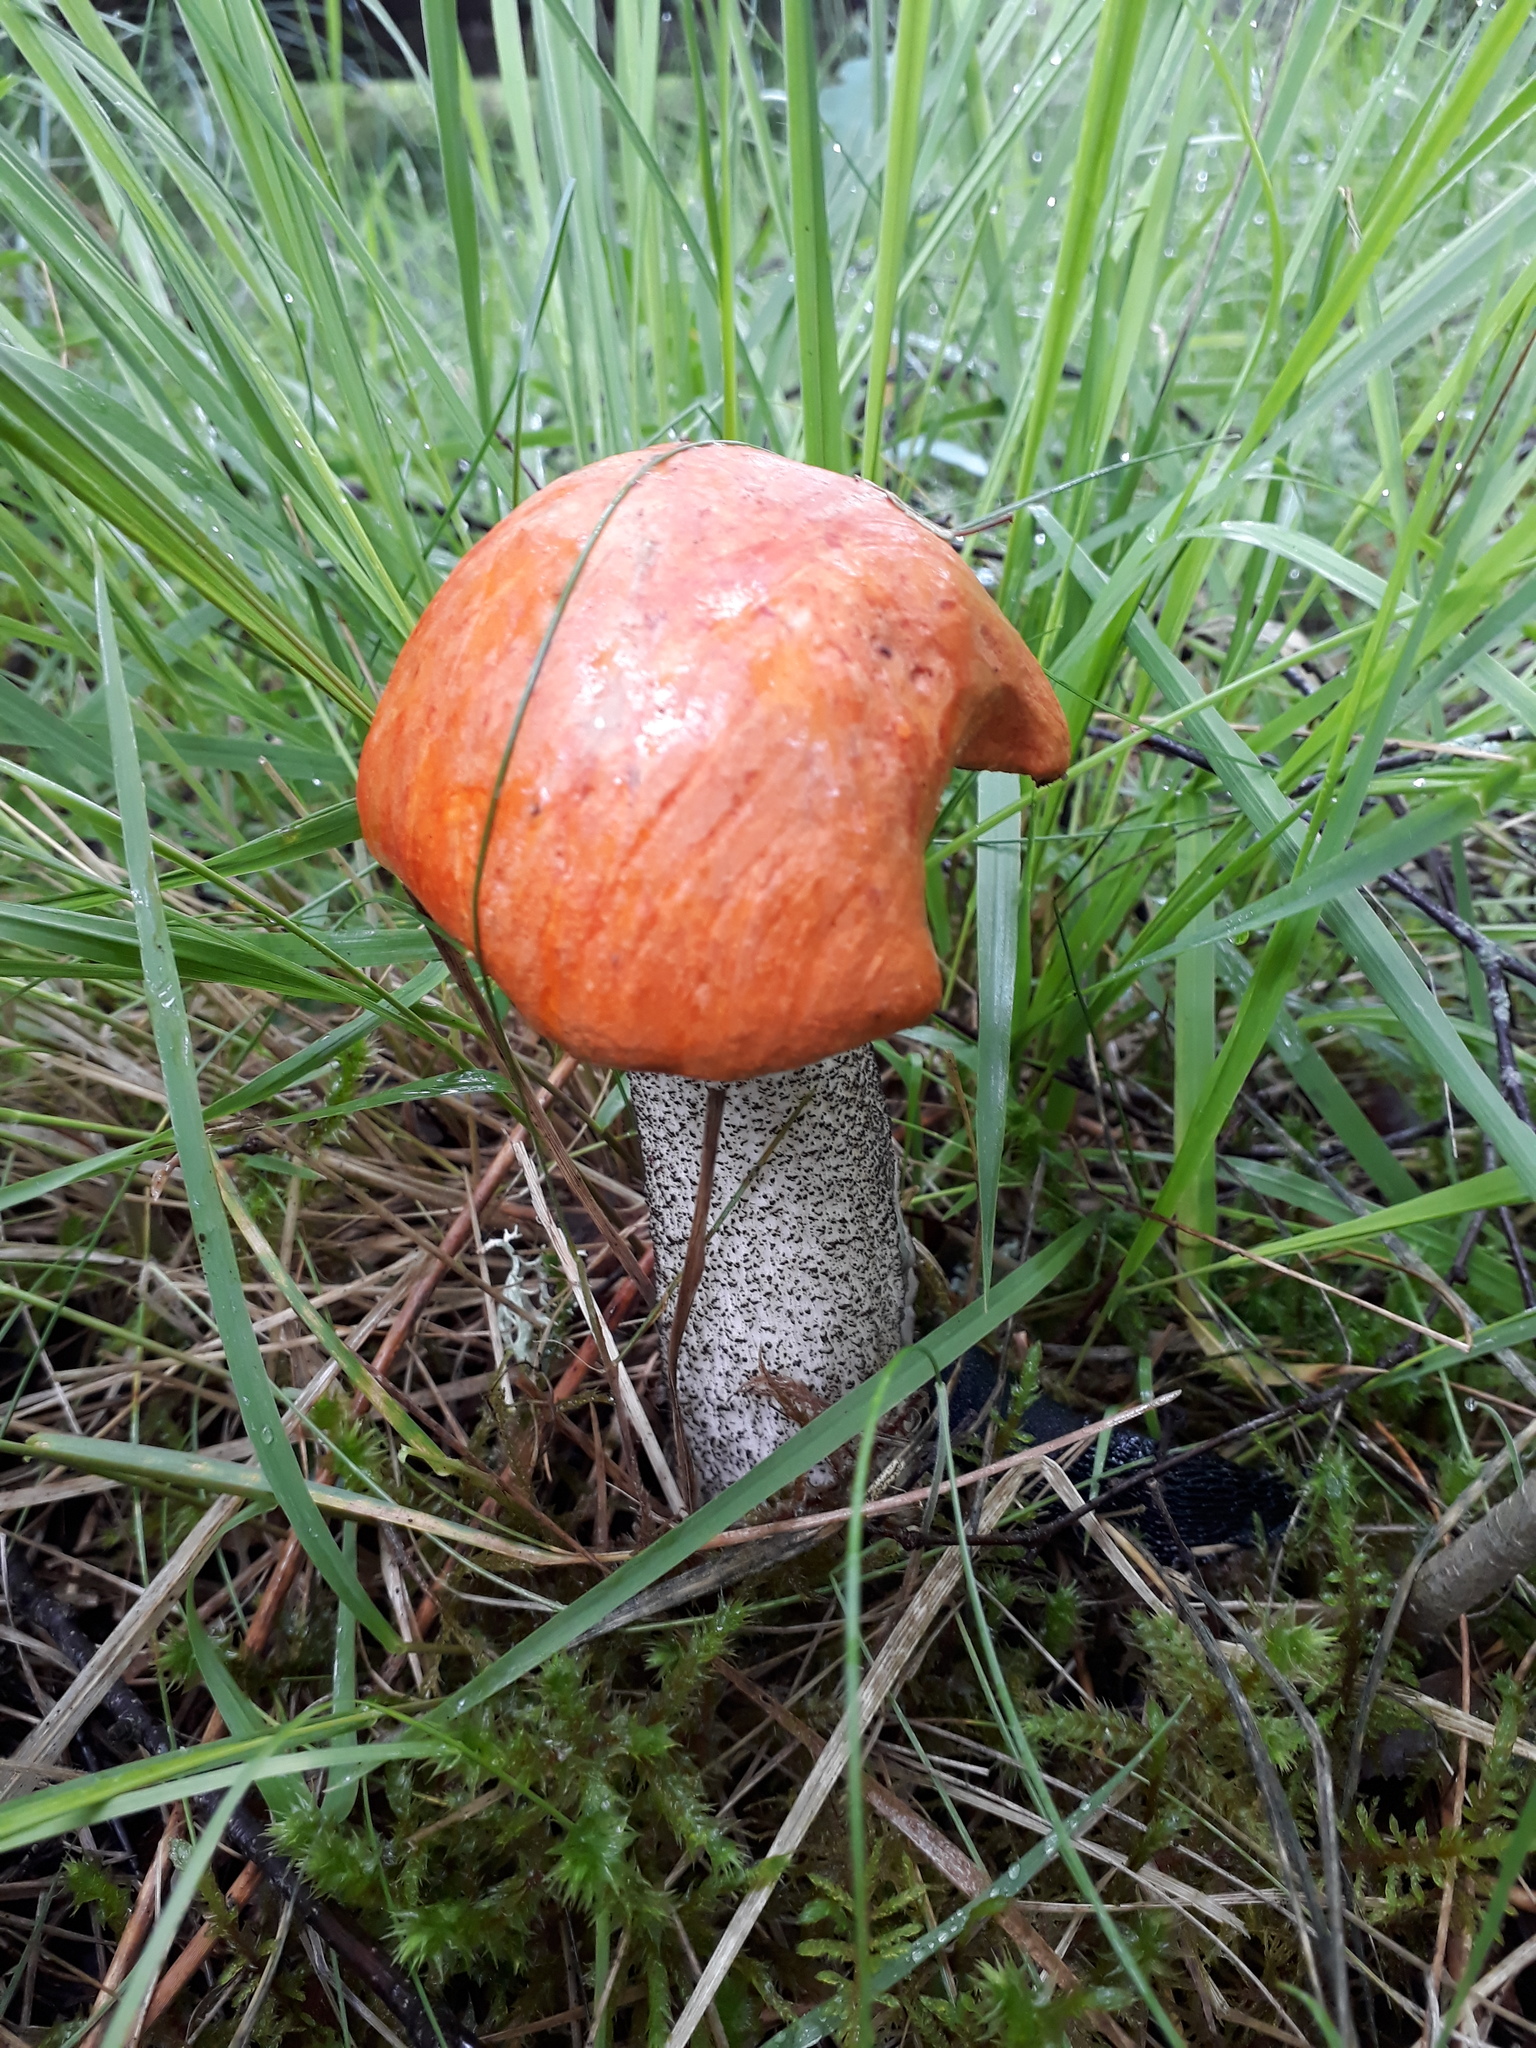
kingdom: Fungi
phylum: Basidiomycota
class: Agaricomycetes
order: Boletales
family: Boletaceae
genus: Leccinum
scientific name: Leccinum aurantiacum
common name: Orange bolete
